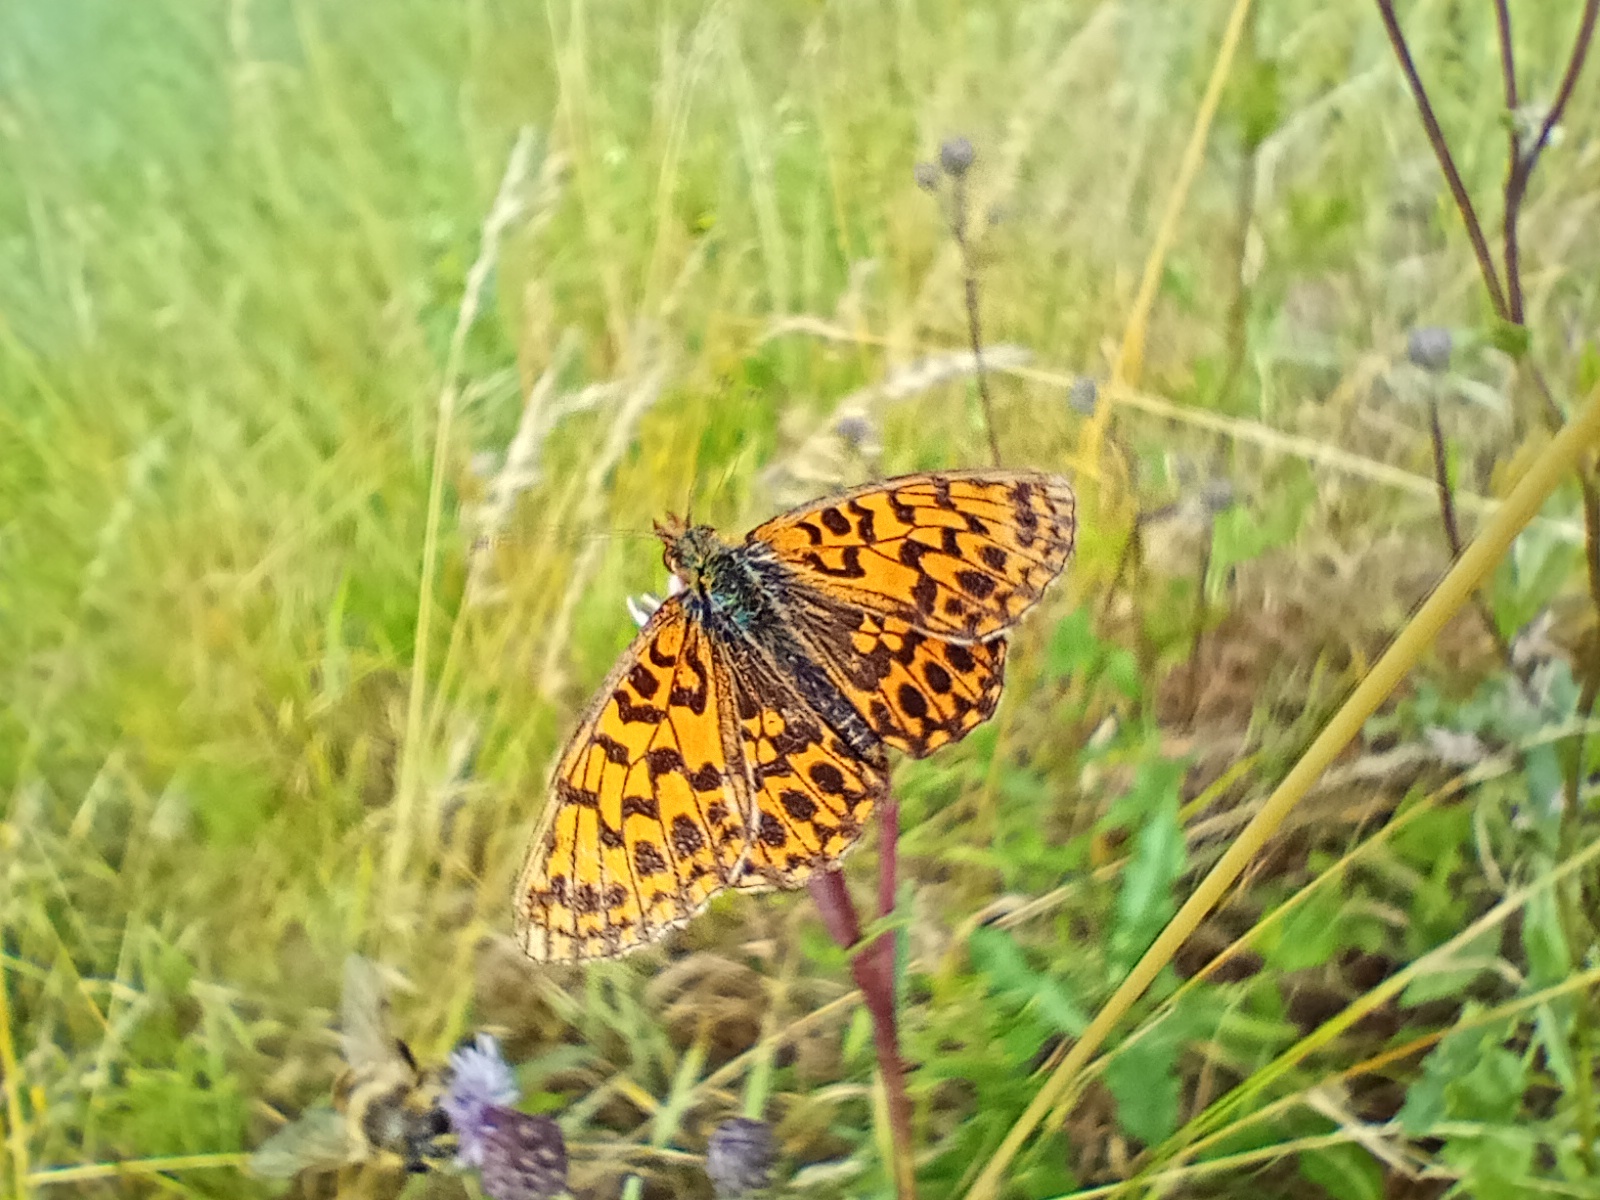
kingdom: Animalia
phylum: Arthropoda
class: Insecta
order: Lepidoptera
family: Nymphalidae
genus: Boloria
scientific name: Boloria dia
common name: Weaver's fritillary
